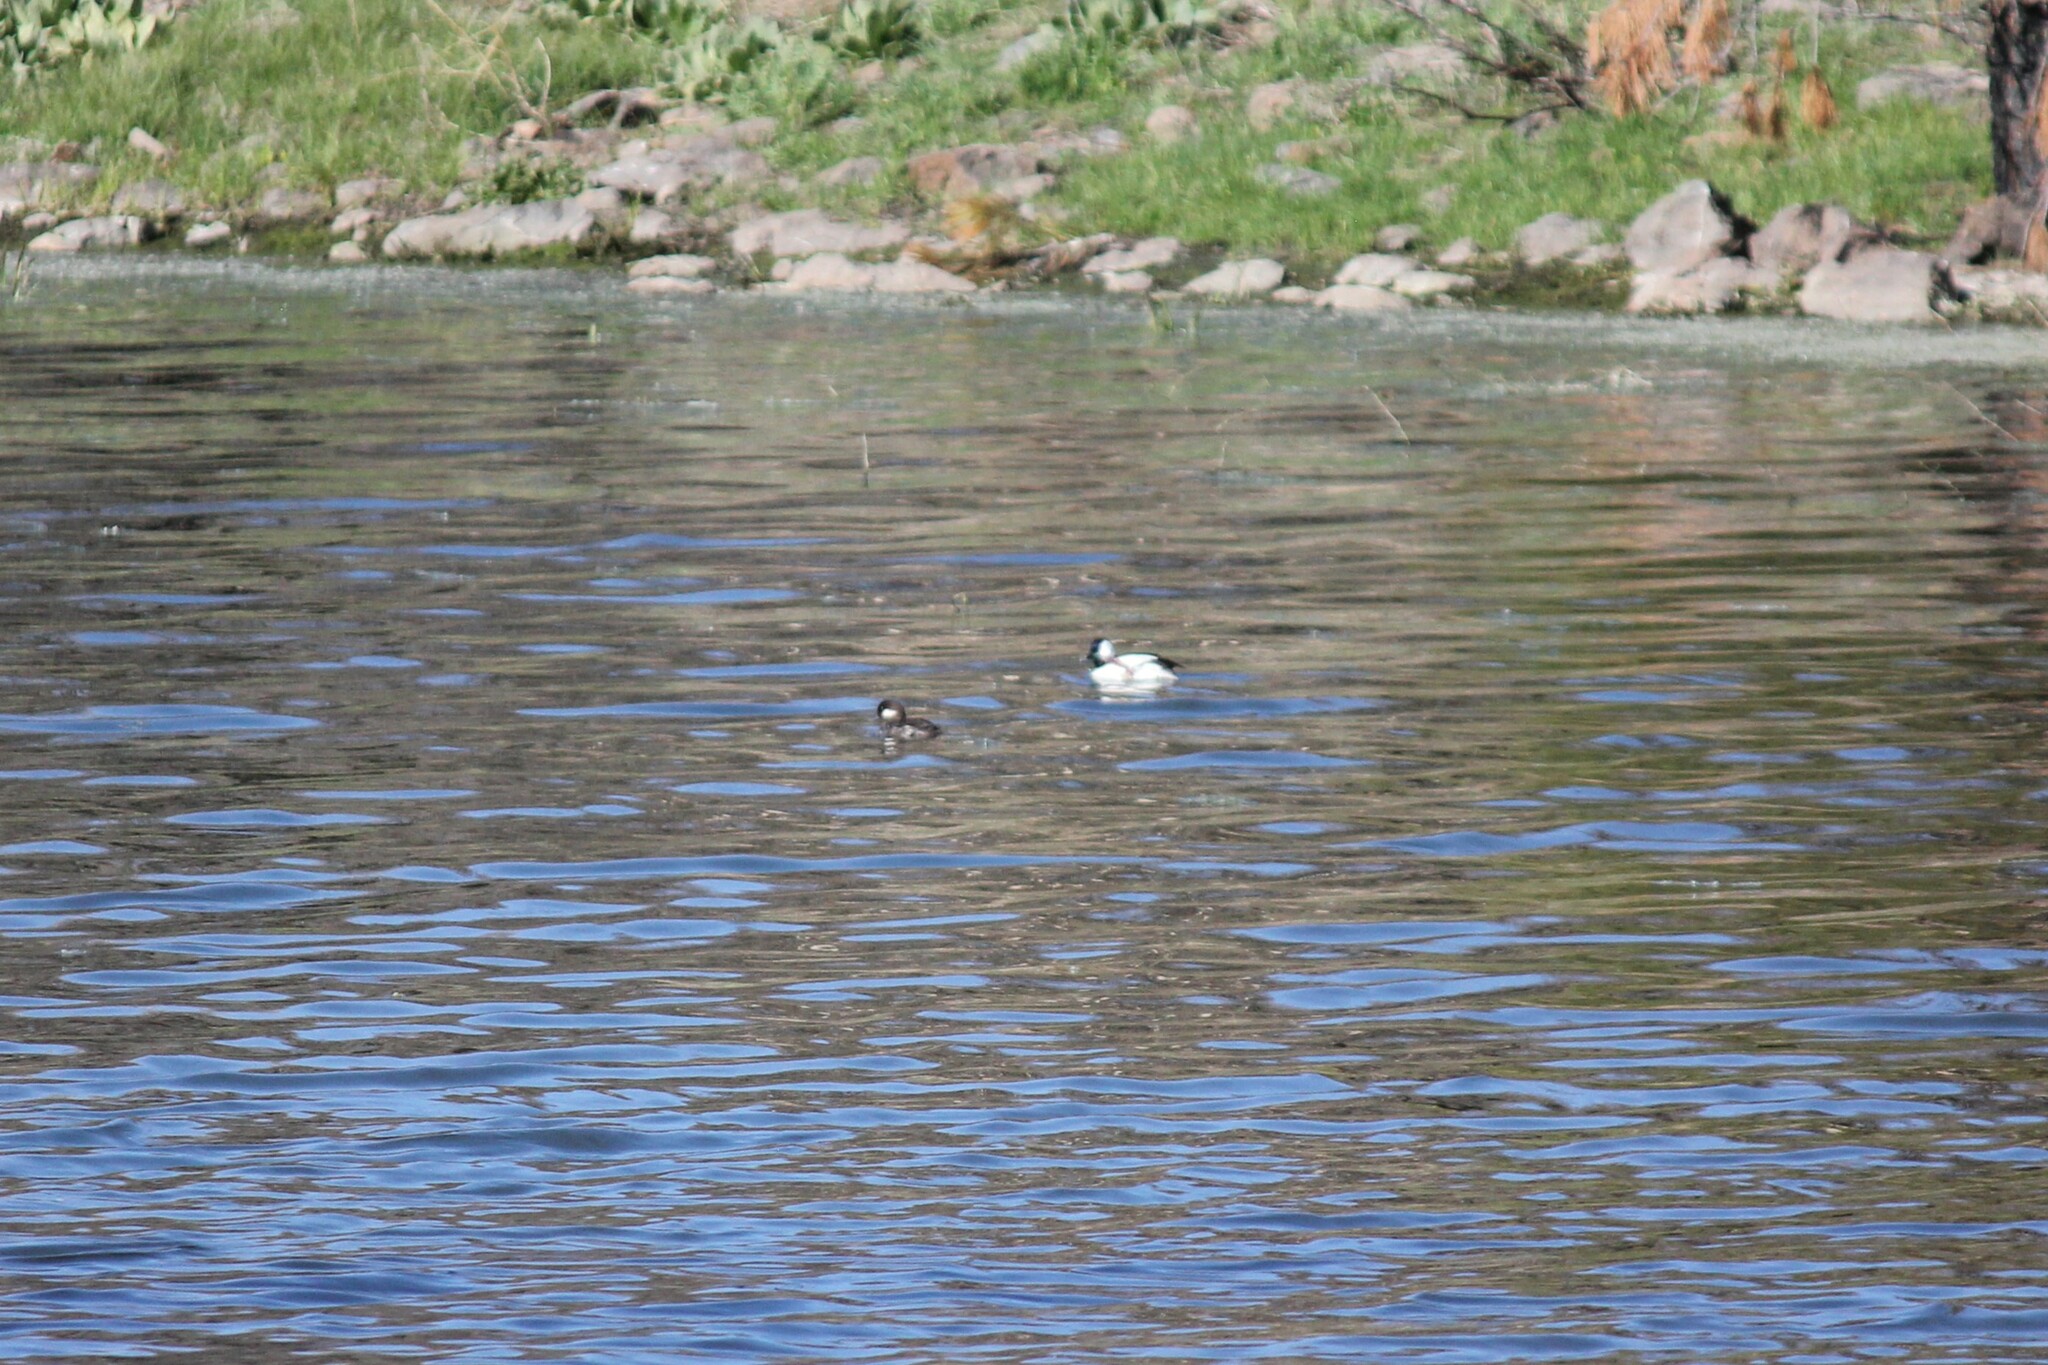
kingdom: Animalia
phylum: Chordata
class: Aves
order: Anseriformes
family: Anatidae
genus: Bucephala
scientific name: Bucephala albeola
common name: Bufflehead
